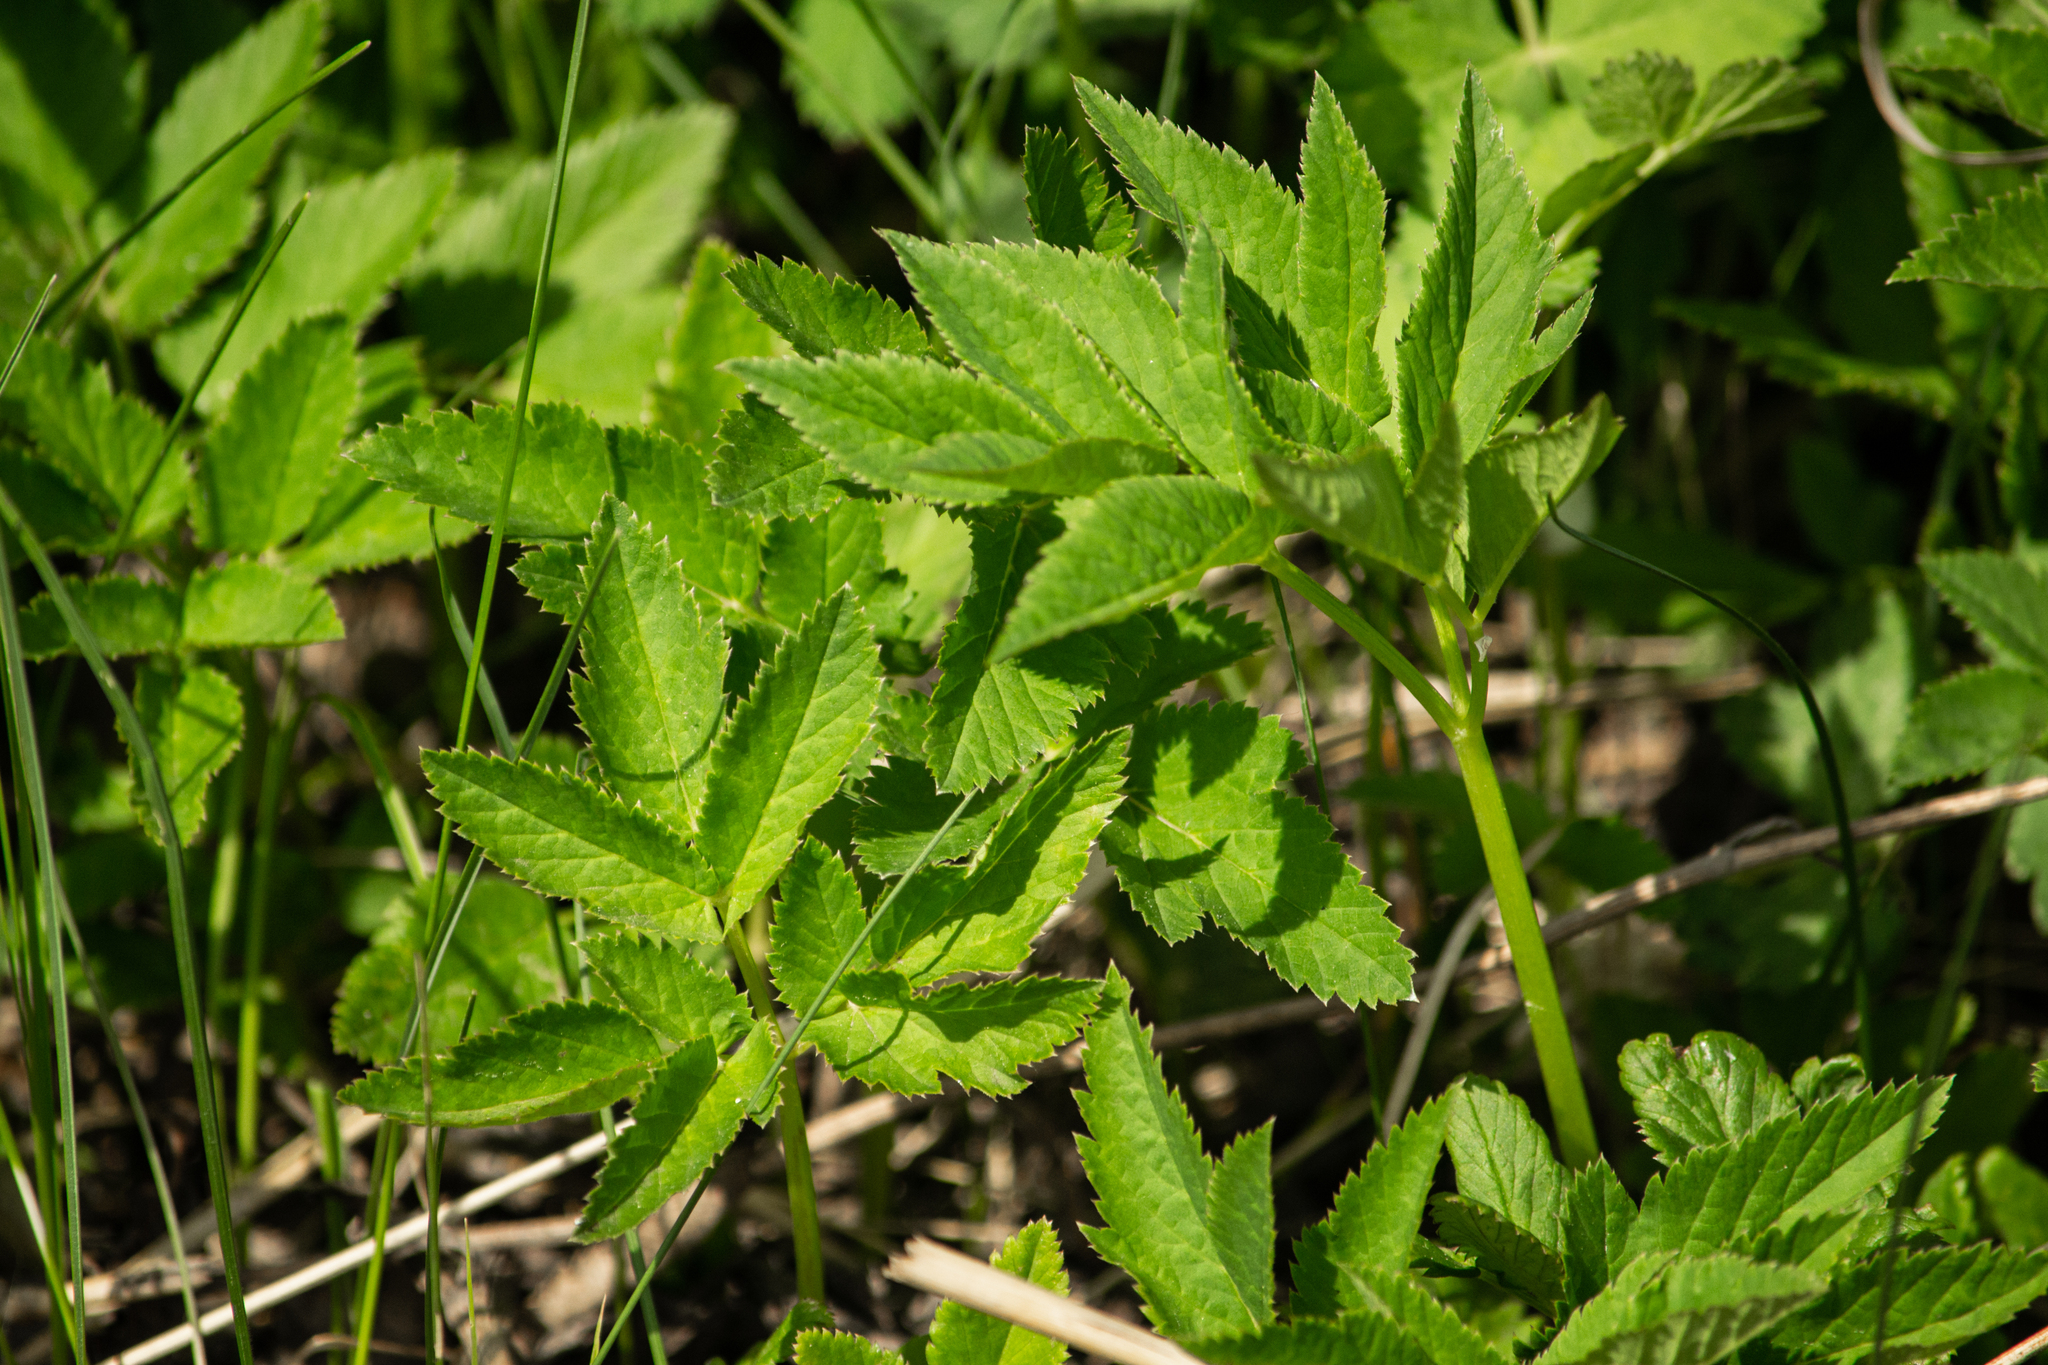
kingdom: Plantae
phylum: Tracheophyta
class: Magnoliopsida
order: Apiales
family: Apiaceae
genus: Aegopodium
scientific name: Aegopodium podagraria
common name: Ground-elder
